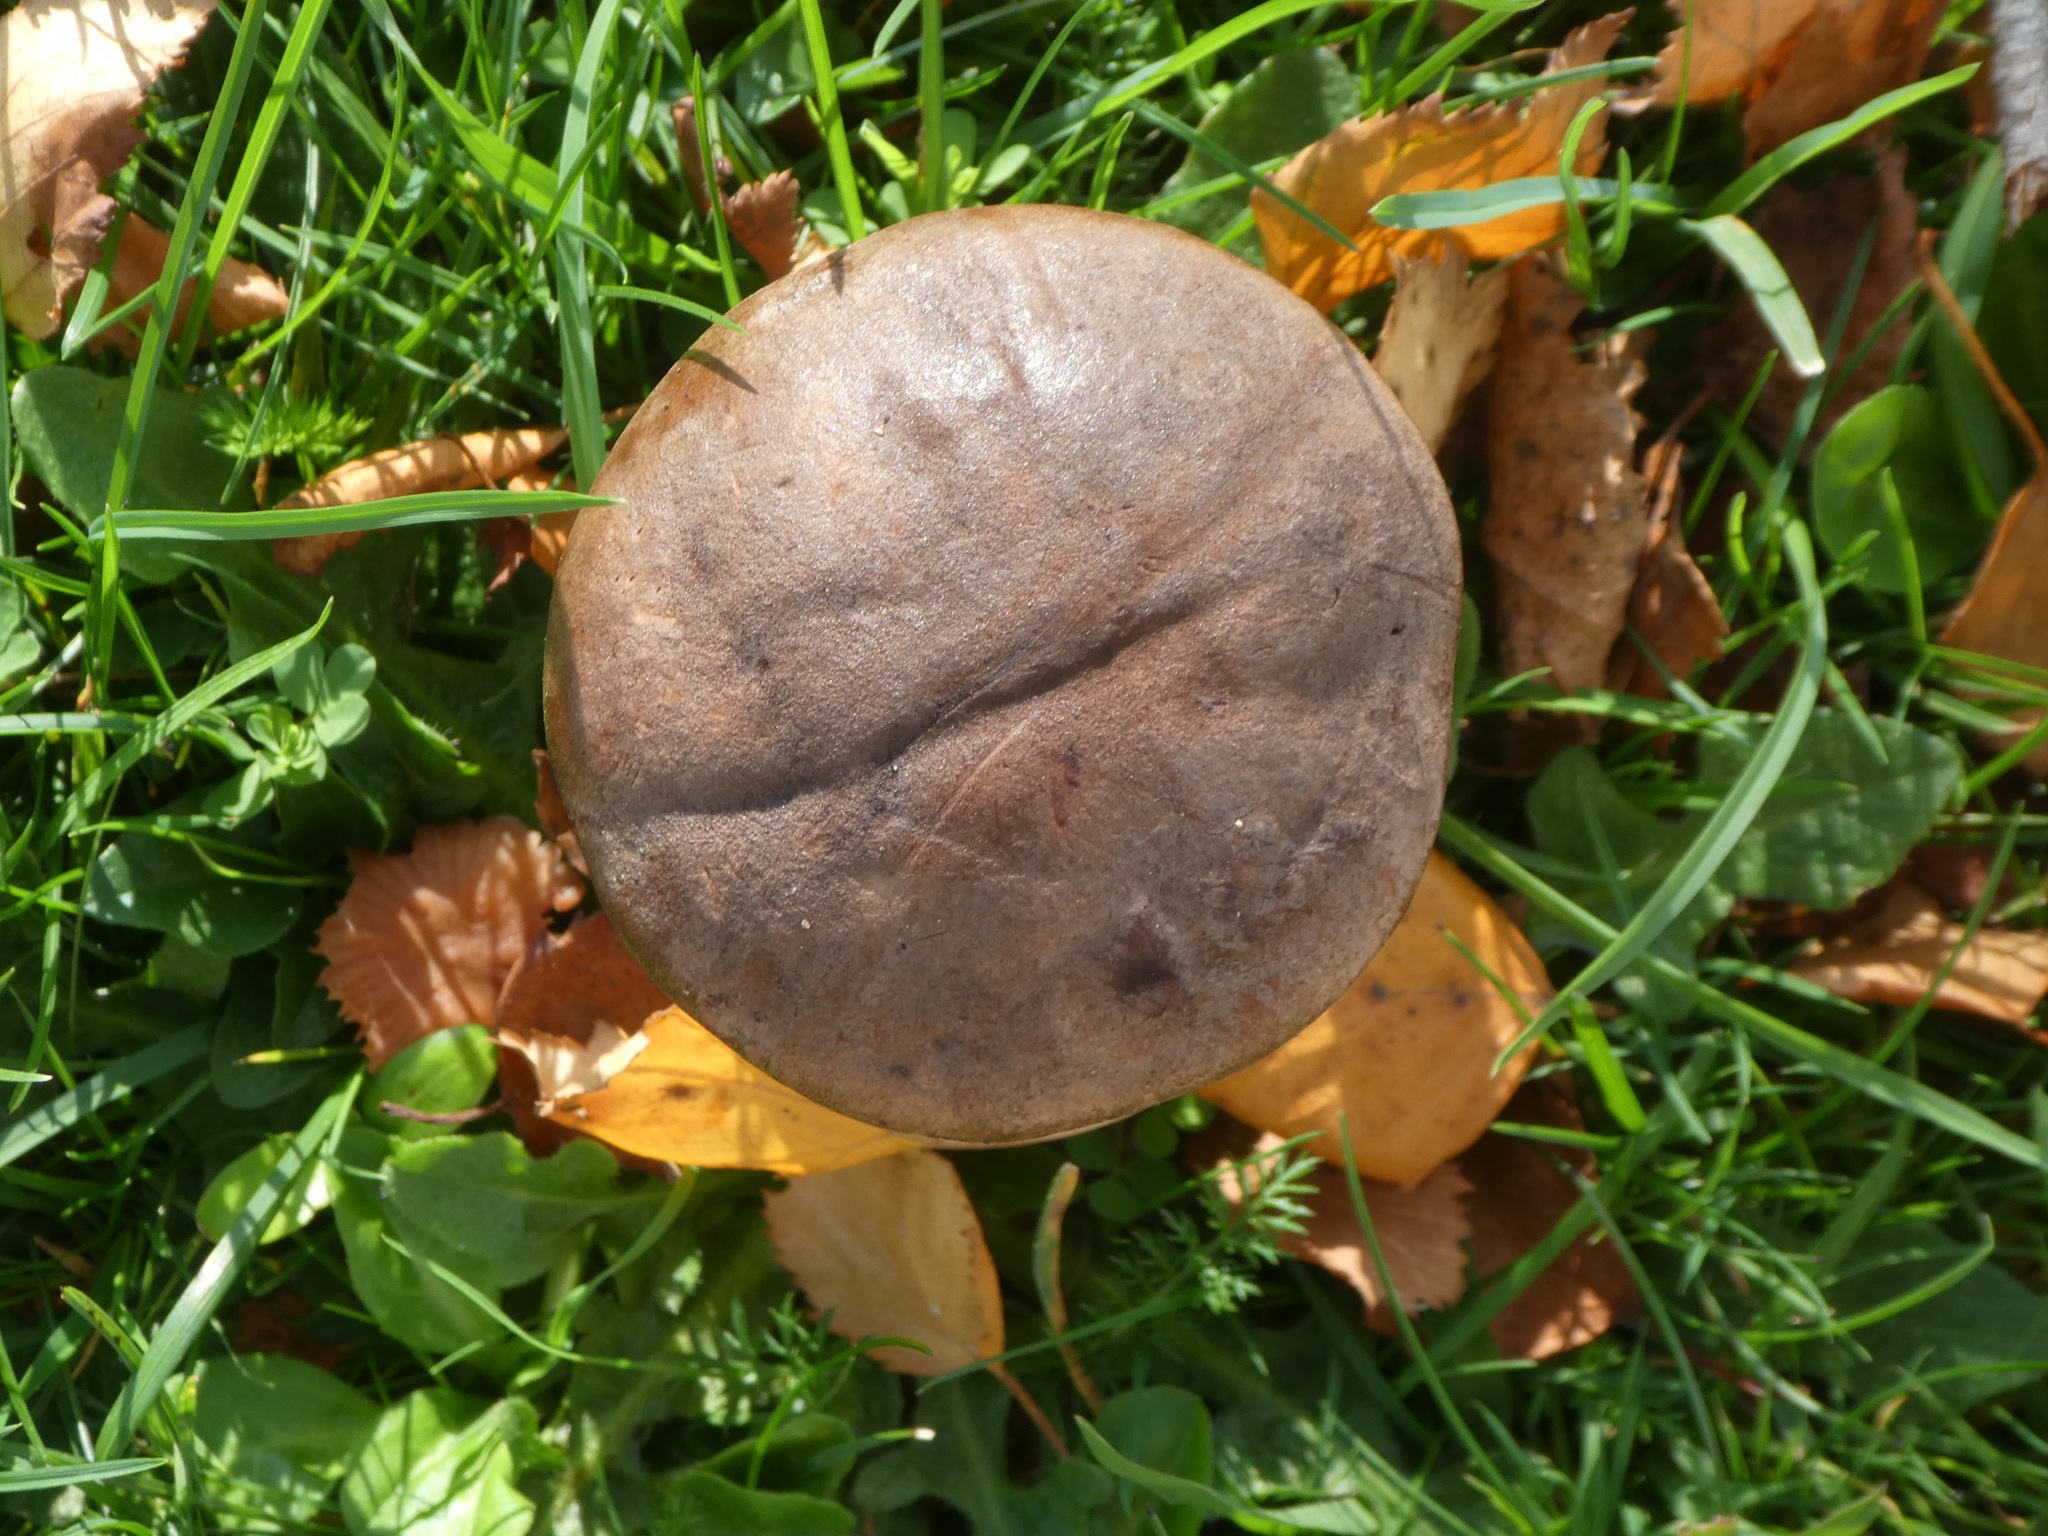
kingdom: Fungi
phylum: Basidiomycota
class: Agaricomycetes
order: Boletales
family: Boletaceae
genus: Leccinum
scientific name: Leccinum scabrum
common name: Blushing bolete
